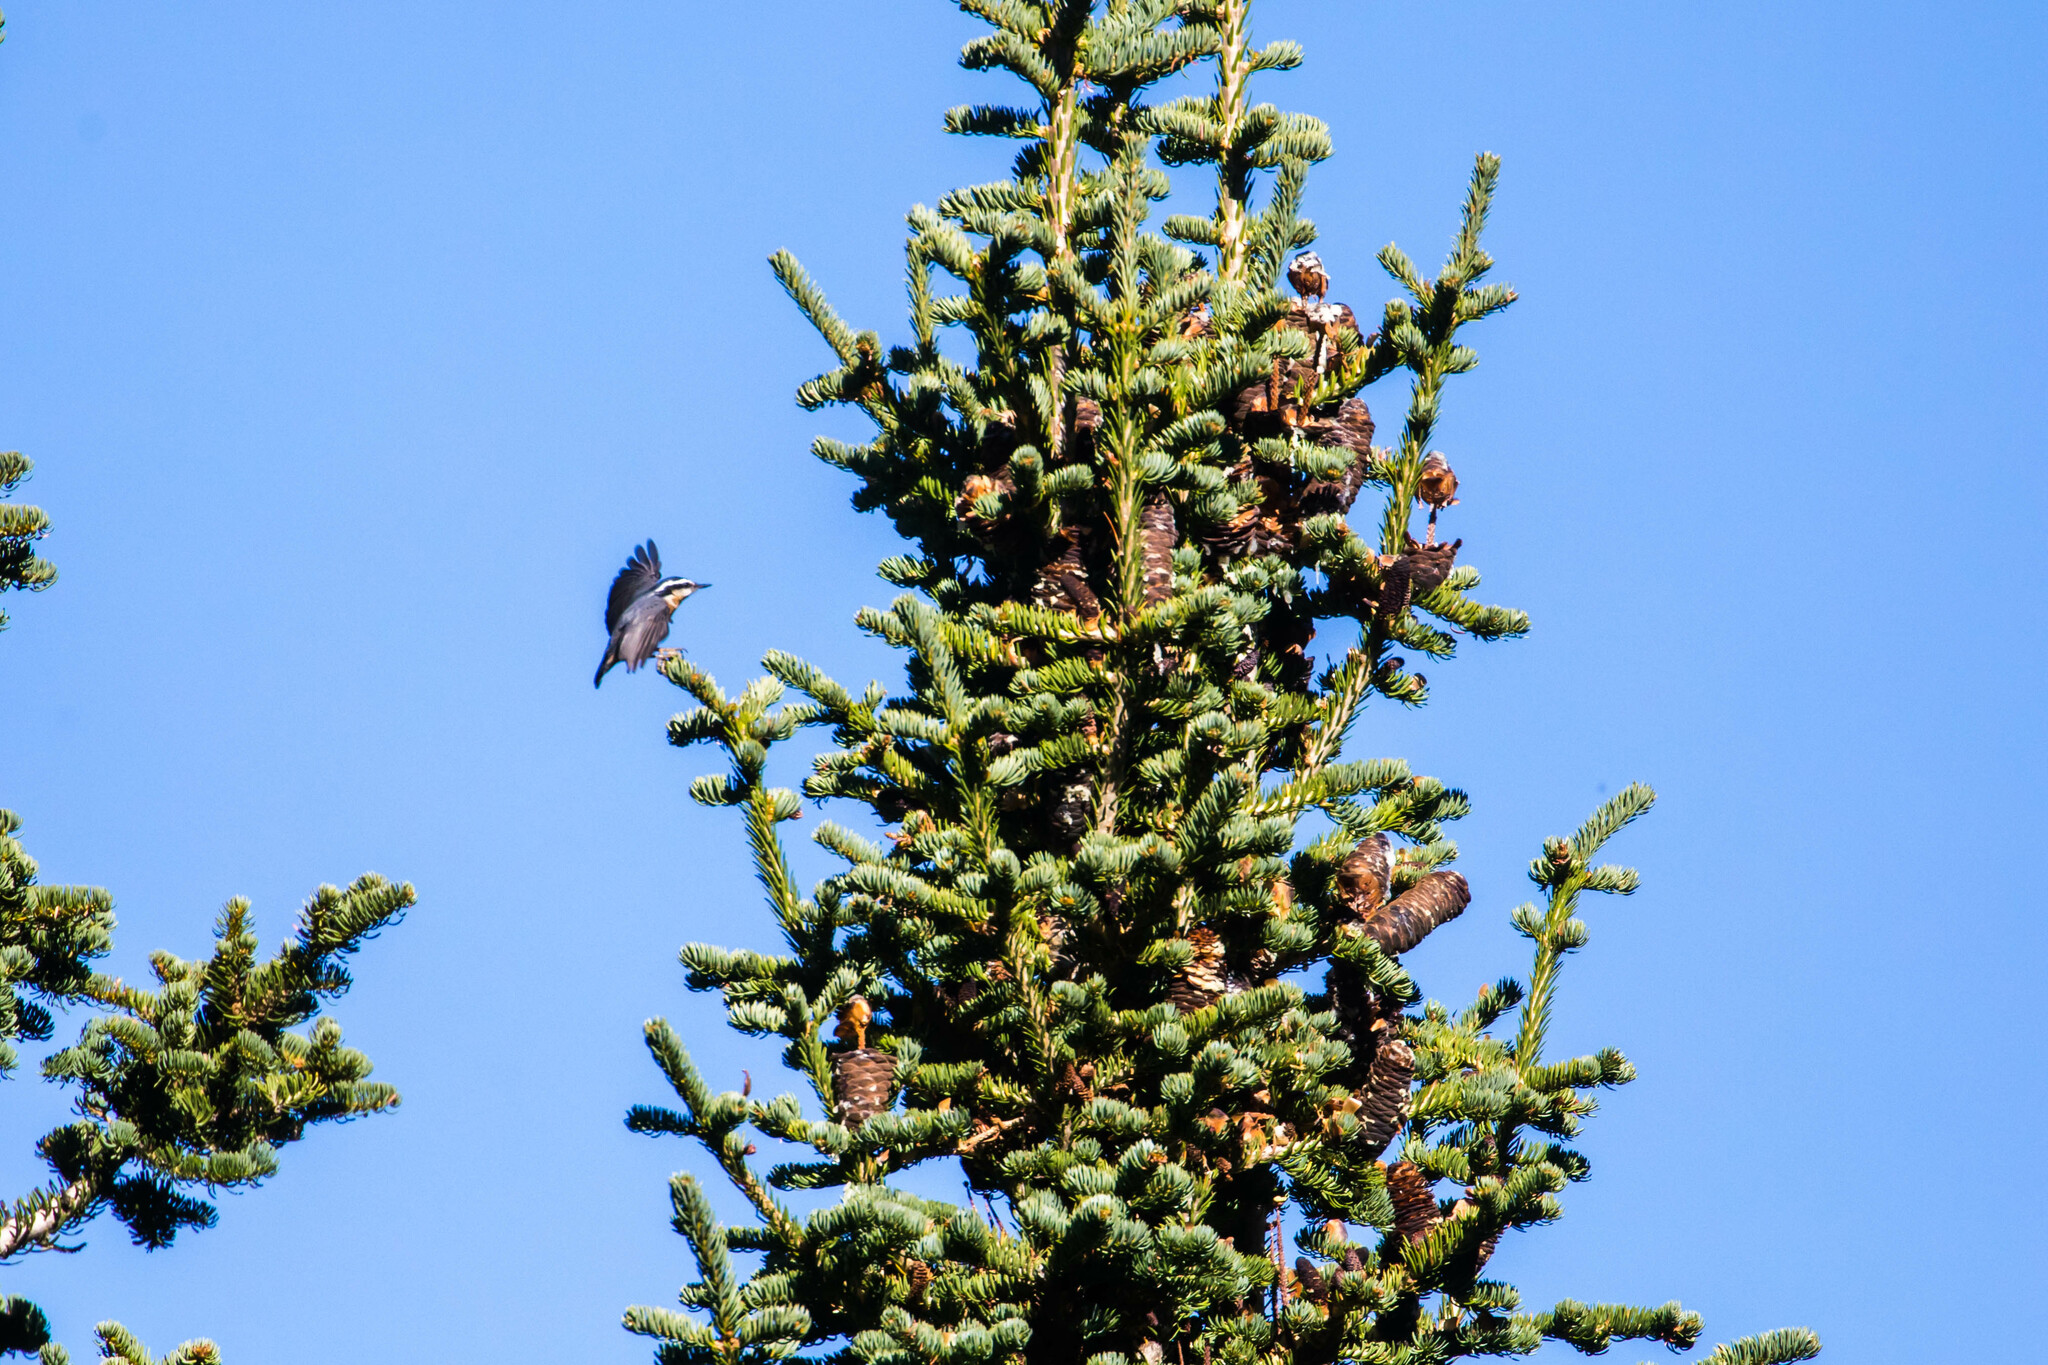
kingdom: Animalia
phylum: Chordata
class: Aves
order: Passeriformes
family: Sittidae
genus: Sitta
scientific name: Sitta canadensis
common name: Red-breasted nuthatch
